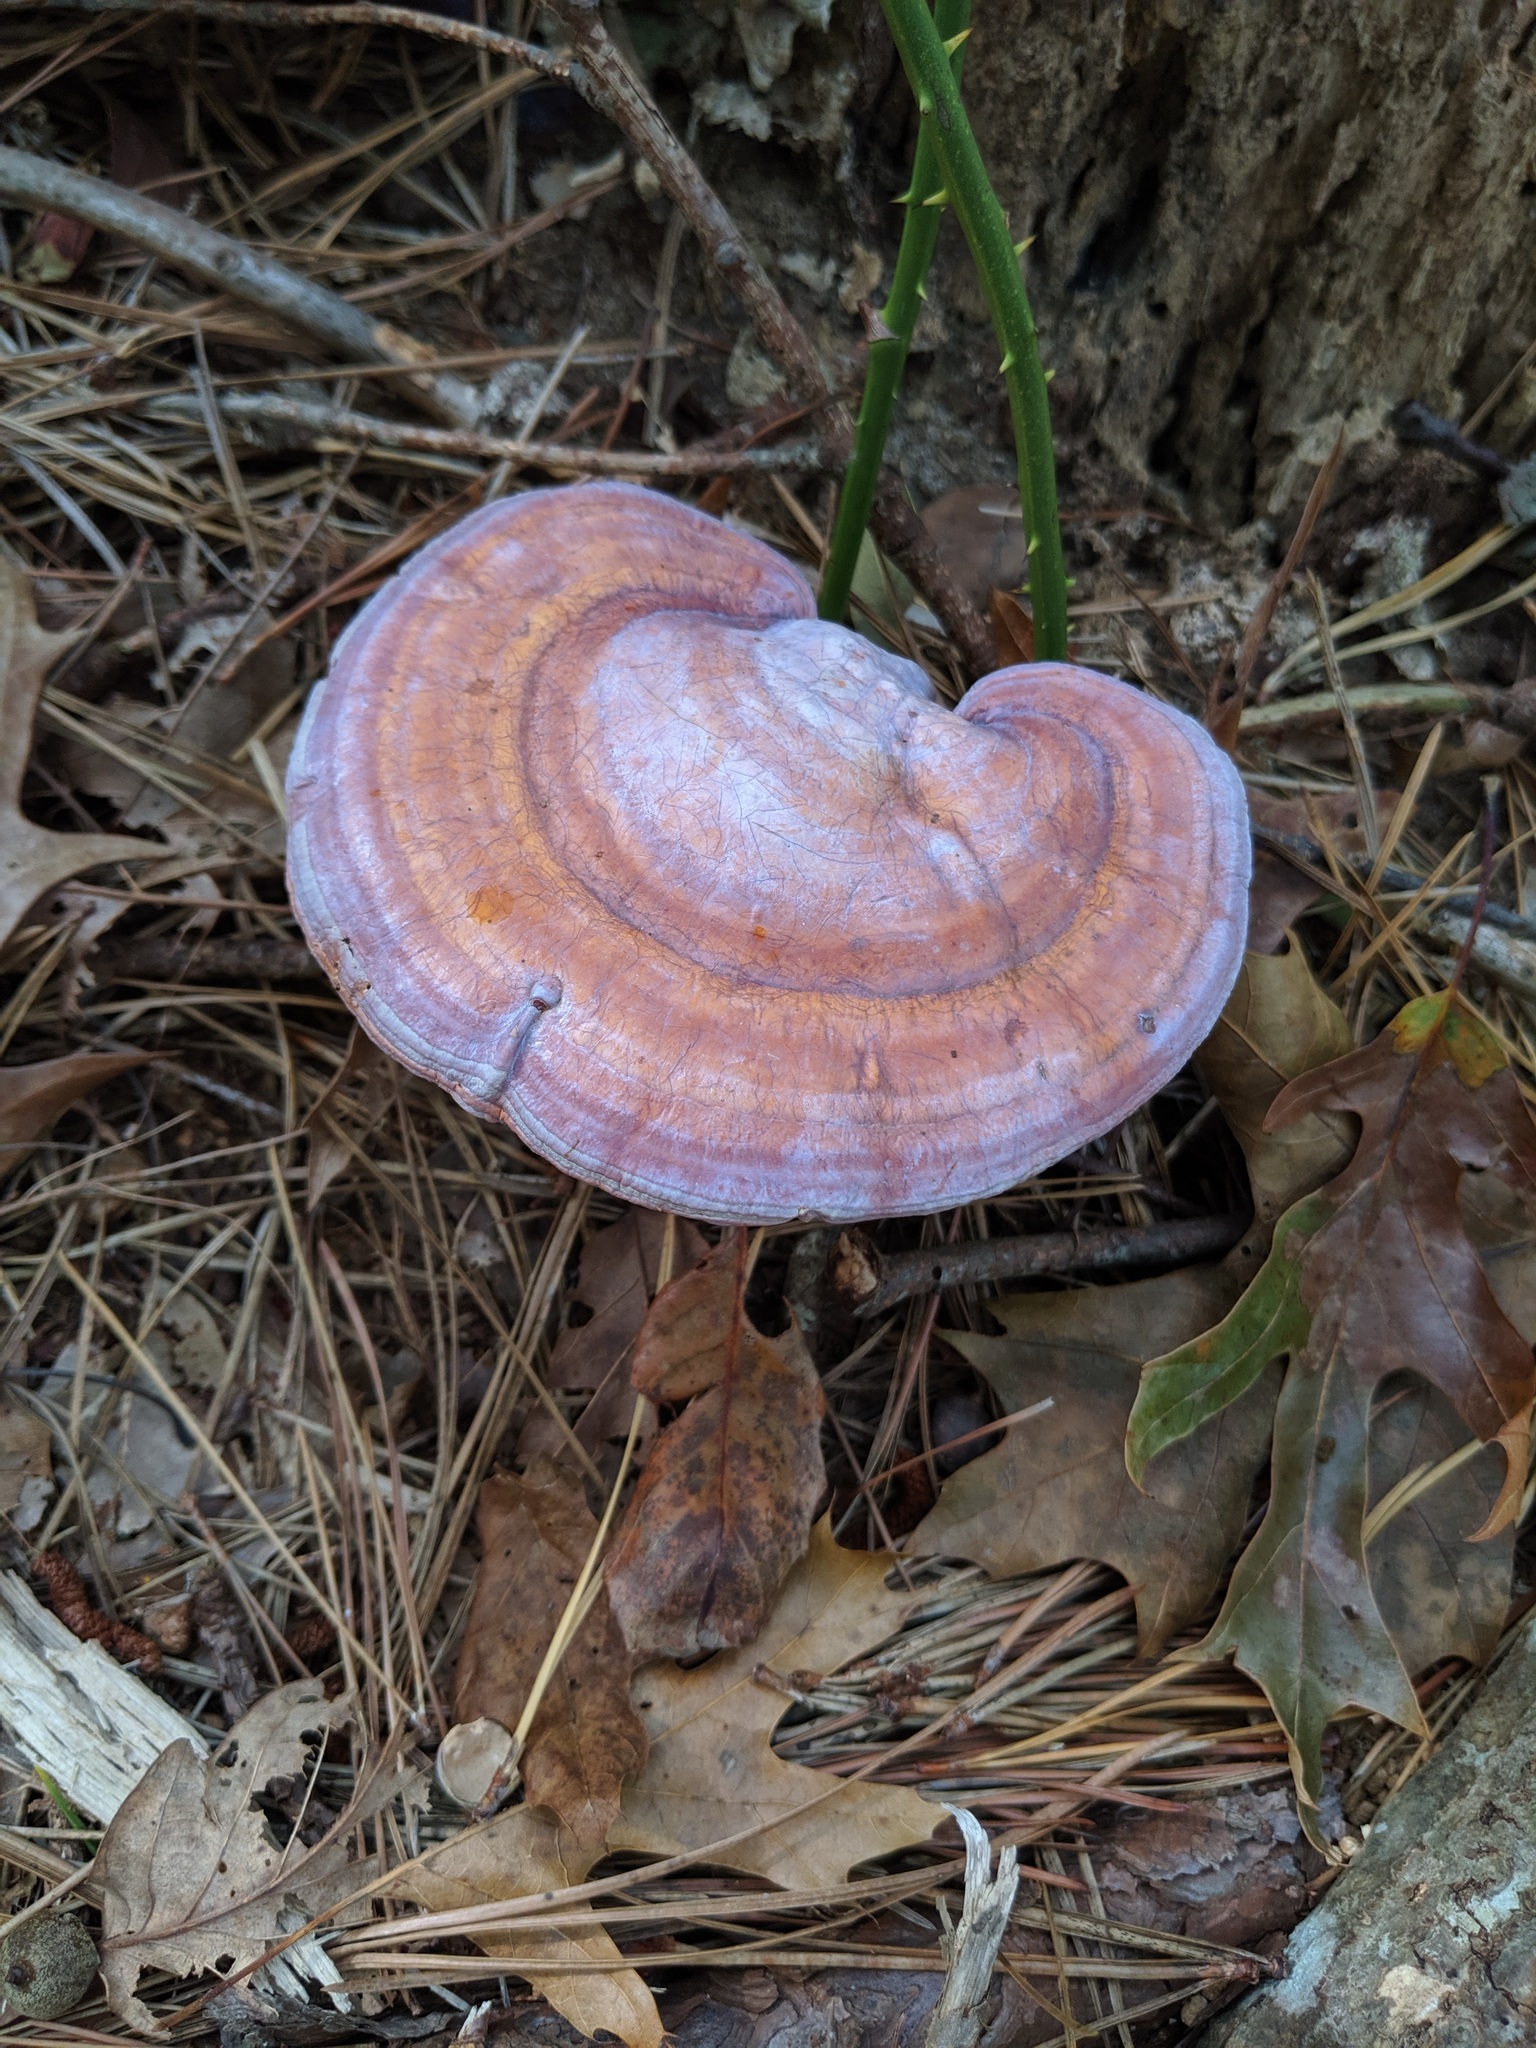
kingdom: Fungi
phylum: Basidiomycota
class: Agaricomycetes
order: Polyporales
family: Polyporaceae
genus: Ganoderma
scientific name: Ganoderma curtisii
